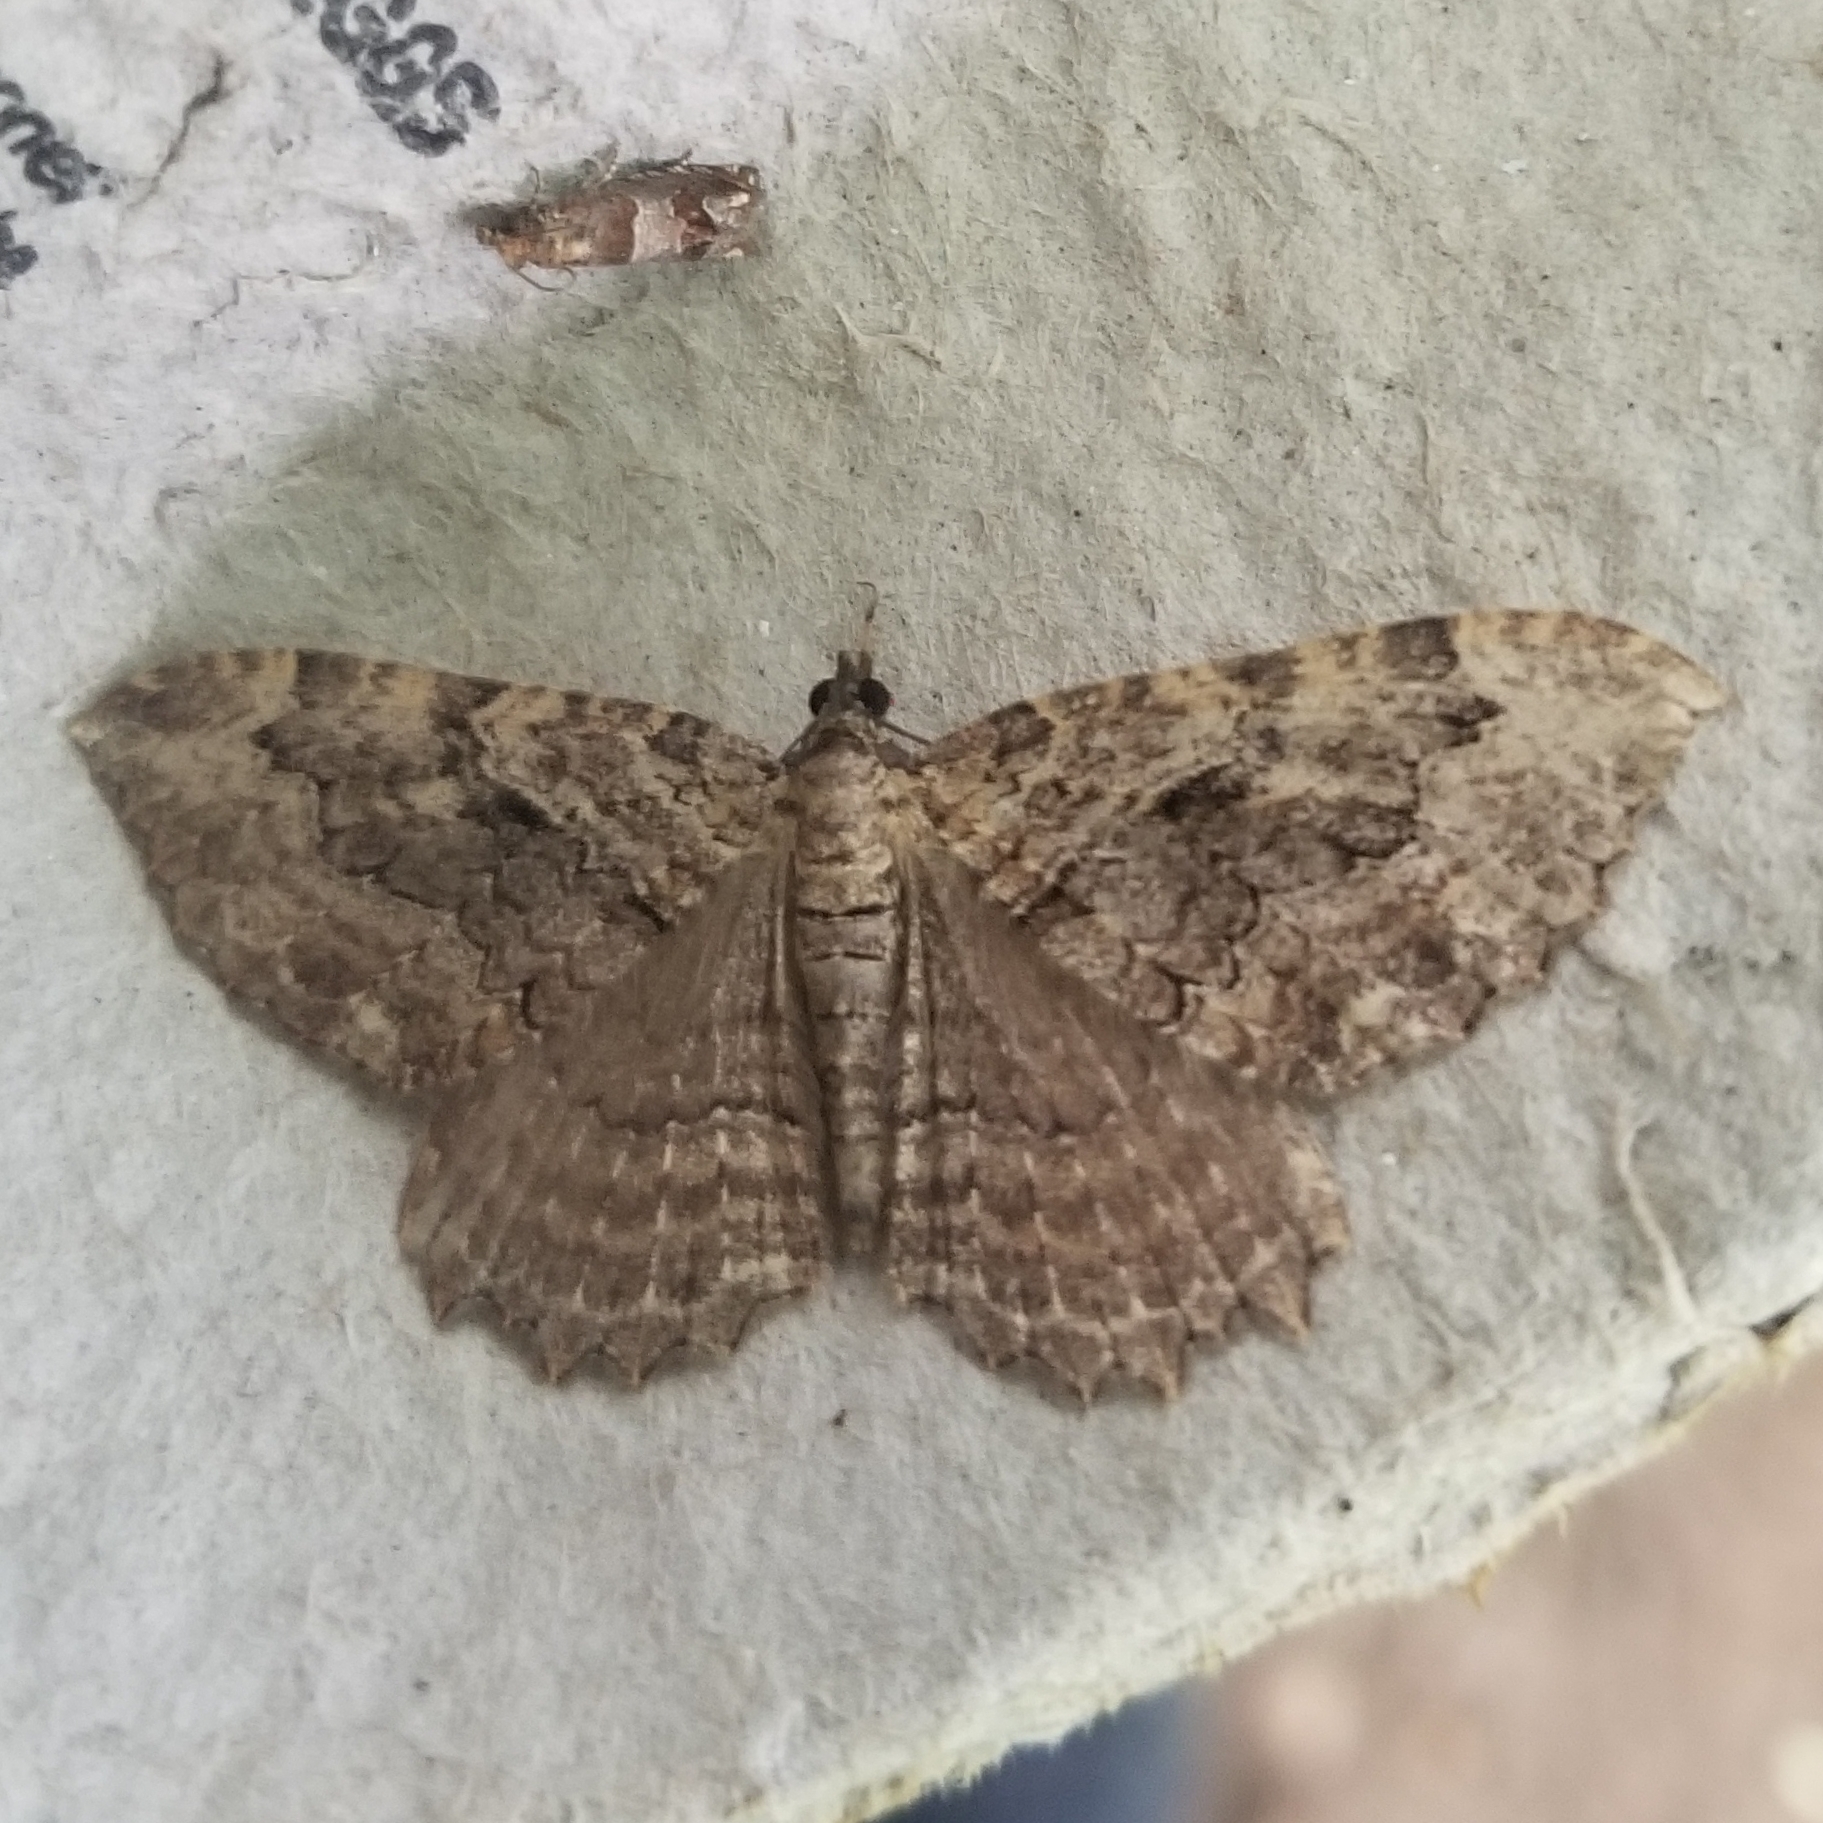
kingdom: Animalia
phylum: Arthropoda
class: Insecta
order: Lepidoptera
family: Geometridae
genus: Rheumaptera
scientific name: Rheumaptera
